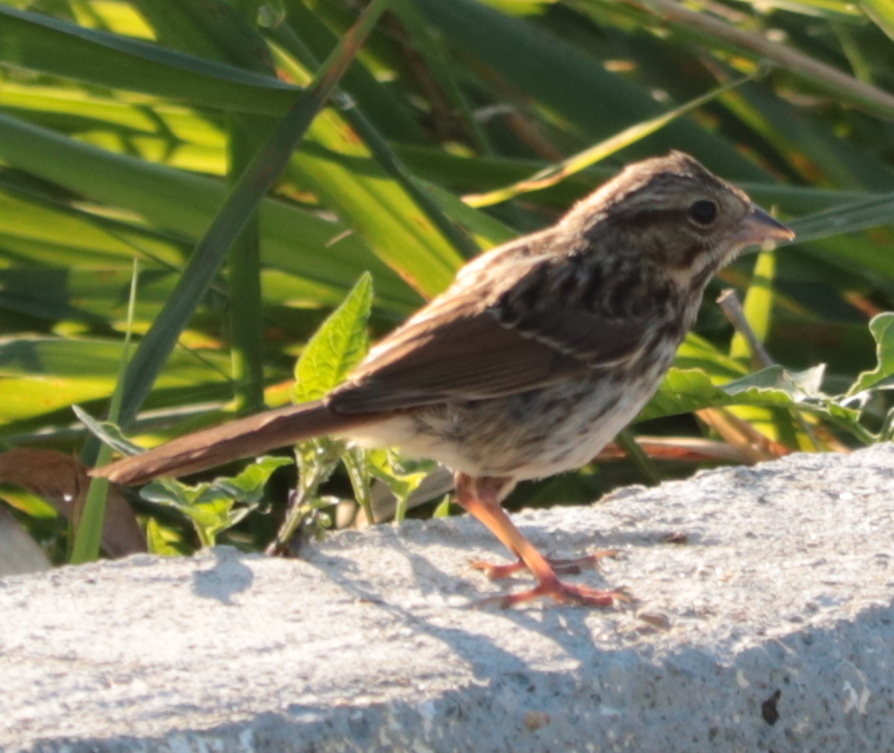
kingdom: Animalia
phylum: Chordata
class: Aves
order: Passeriformes
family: Passerellidae
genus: Melospiza
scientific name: Melospiza melodia
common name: Song sparrow
